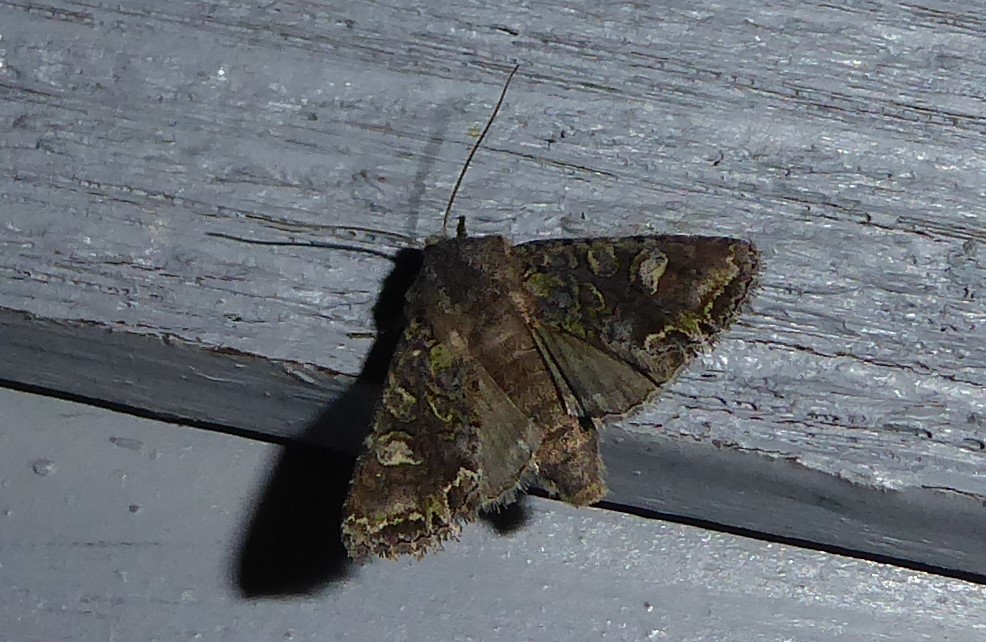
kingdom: Animalia
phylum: Arthropoda
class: Insecta
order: Lepidoptera
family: Noctuidae
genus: Ichneutica
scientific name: Ichneutica skelloni
